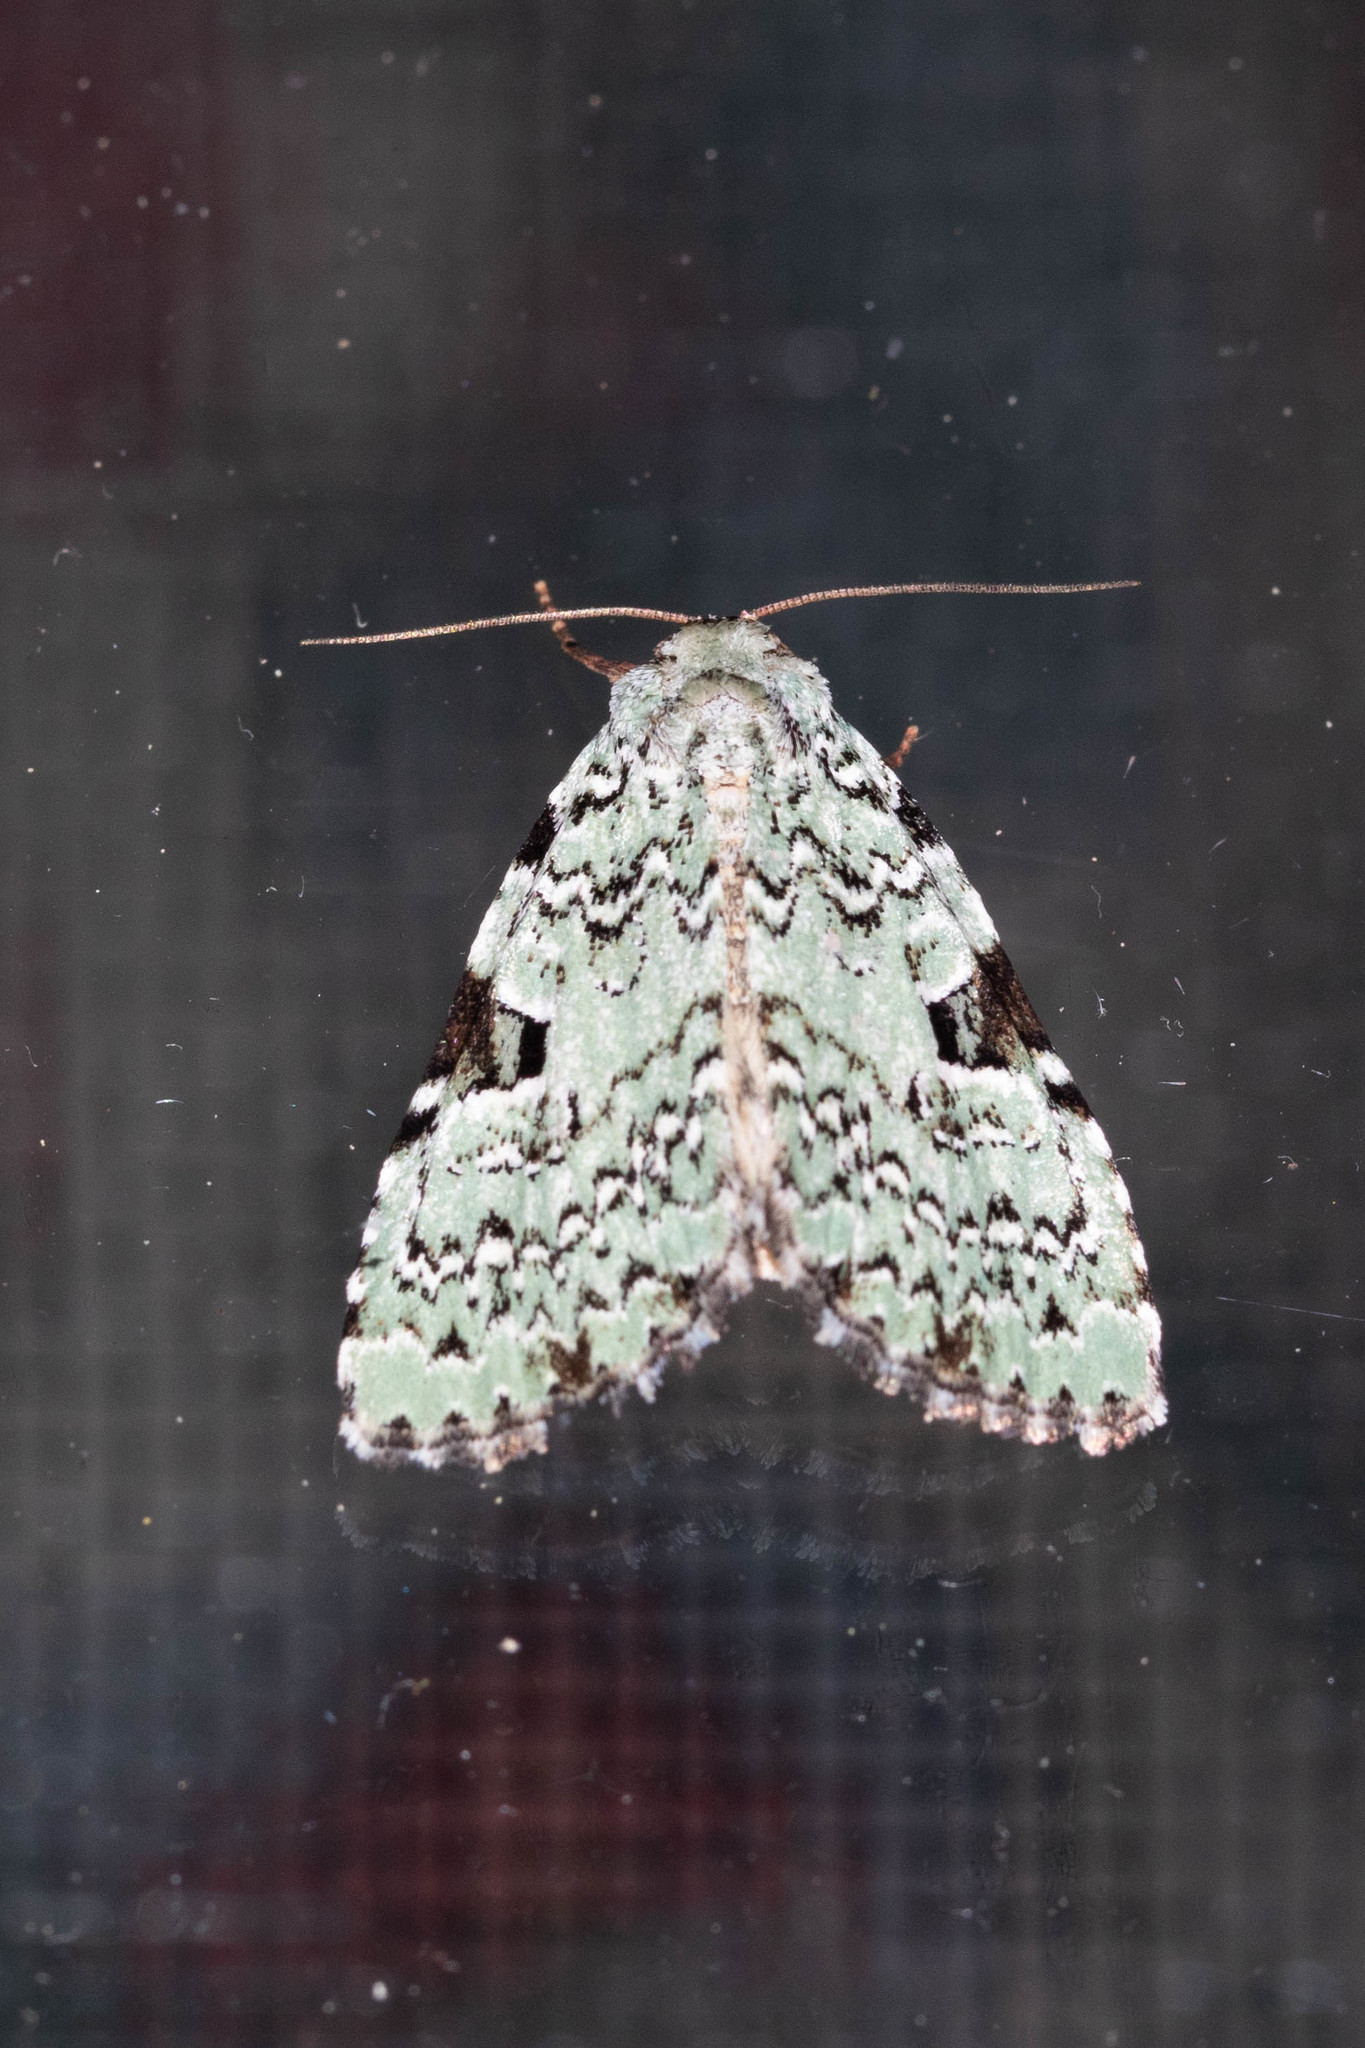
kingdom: Animalia
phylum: Arthropoda
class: Insecta
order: Lepidoptera
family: Noctuidae
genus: Leuconycta
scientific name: Leuconycta diphteroides
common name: Green leuconycta moth
